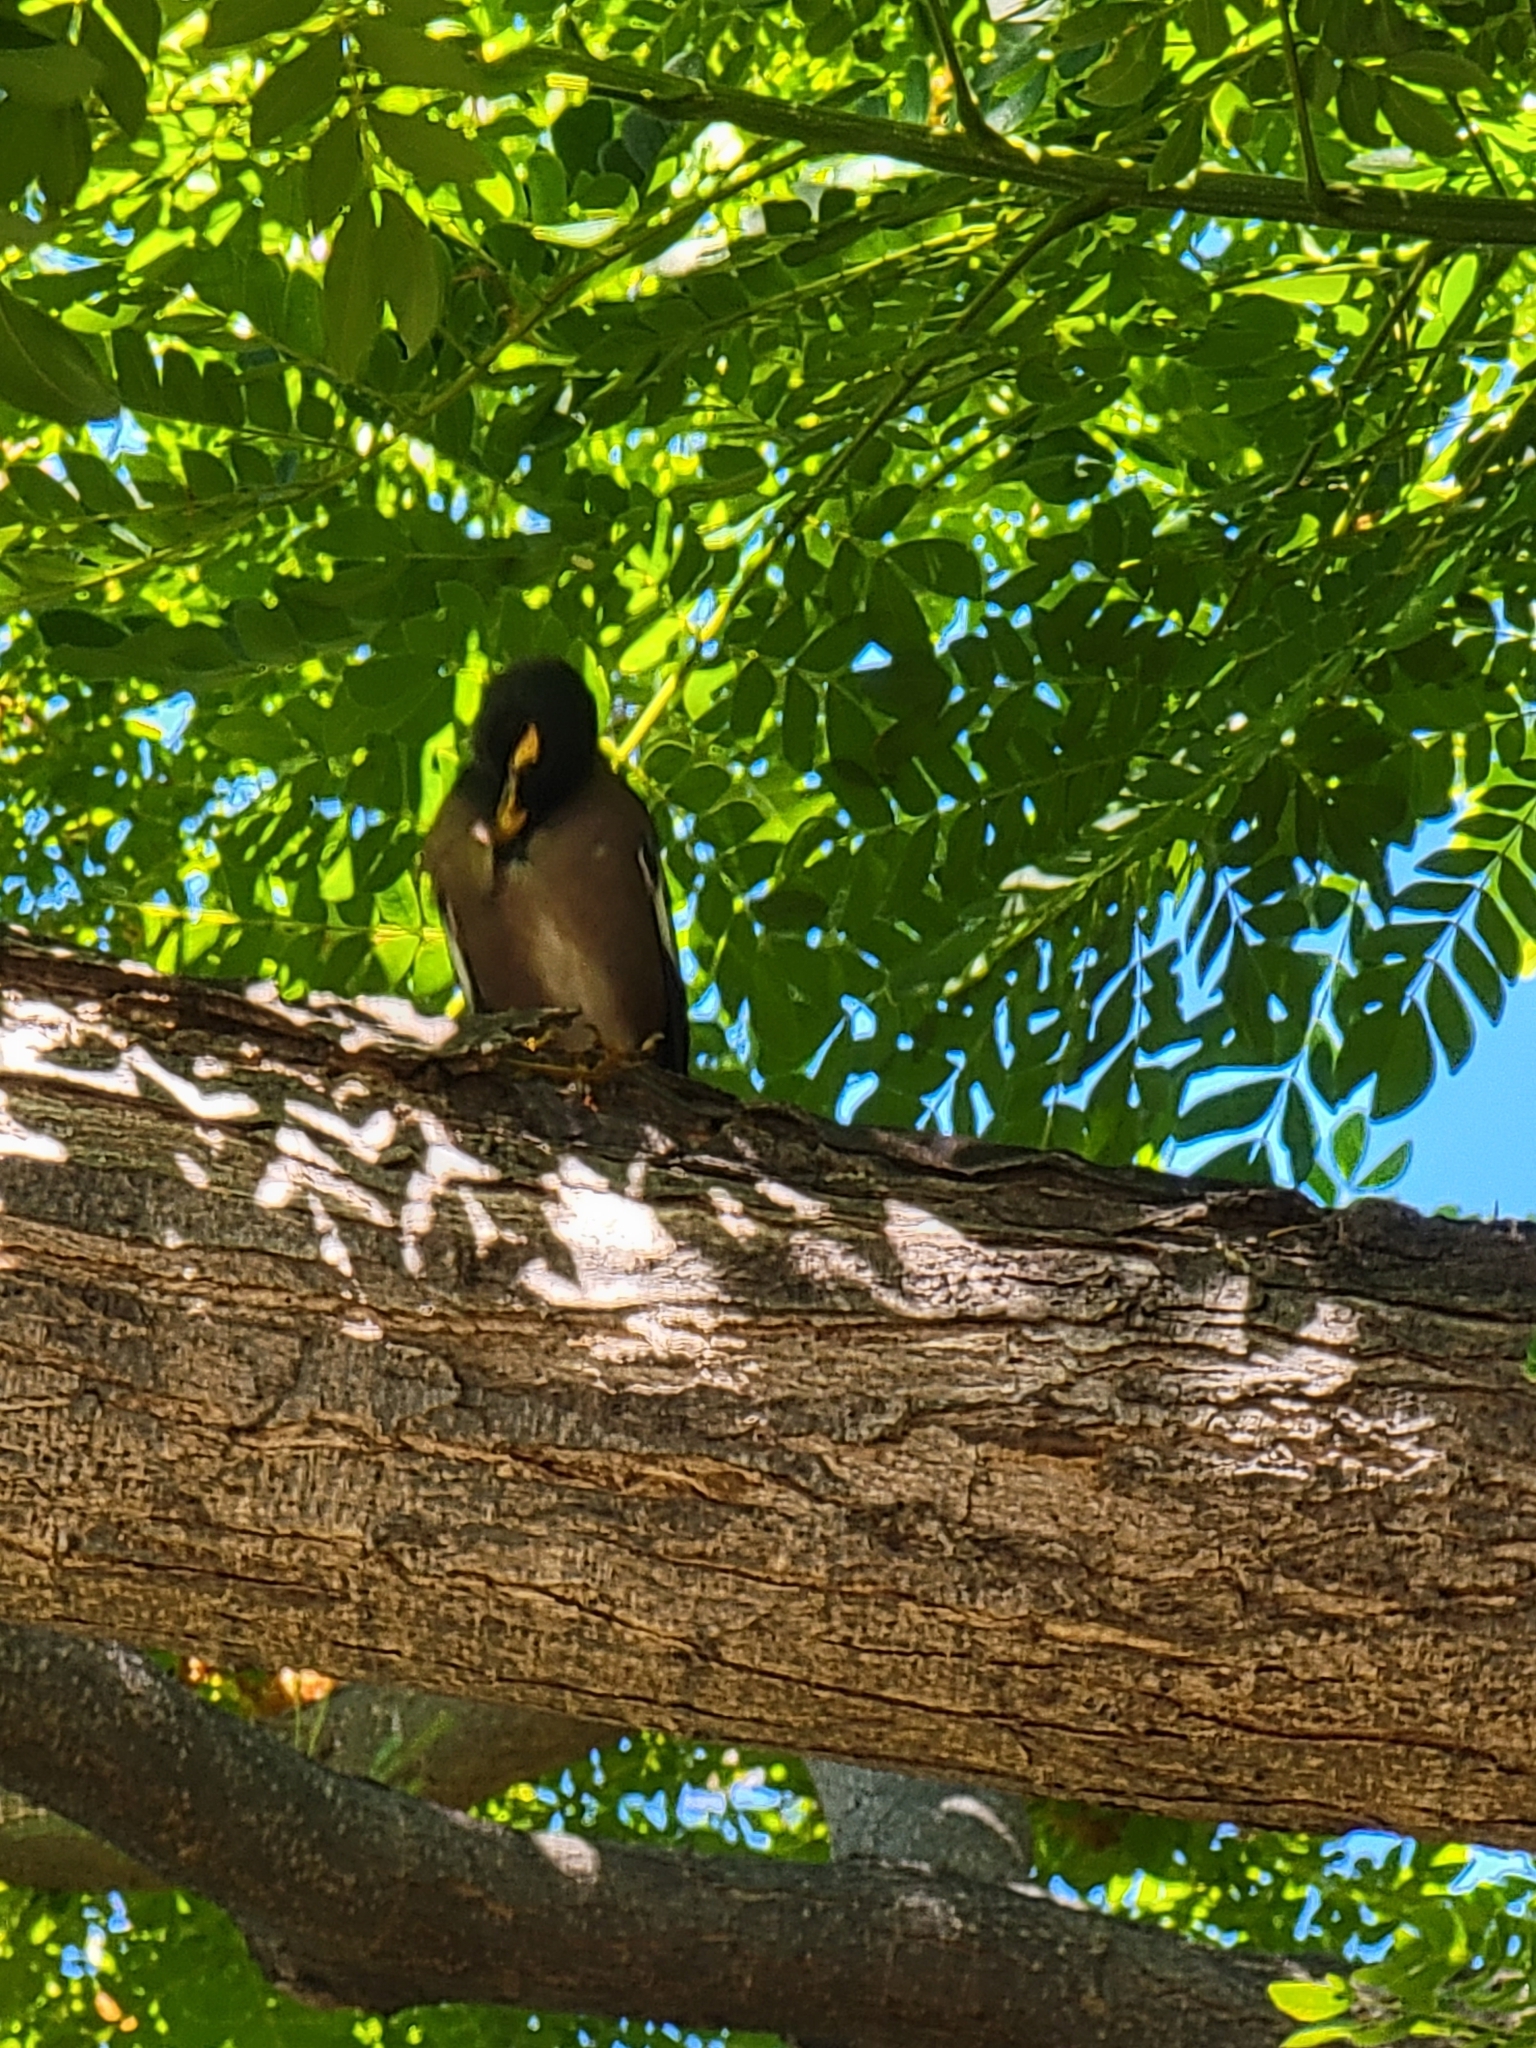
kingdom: Animalia
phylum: Chordata
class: Aves
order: Passeriformes
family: Sturnidae
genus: Acridotheres
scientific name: Acridotheres tristis
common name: Common myna
